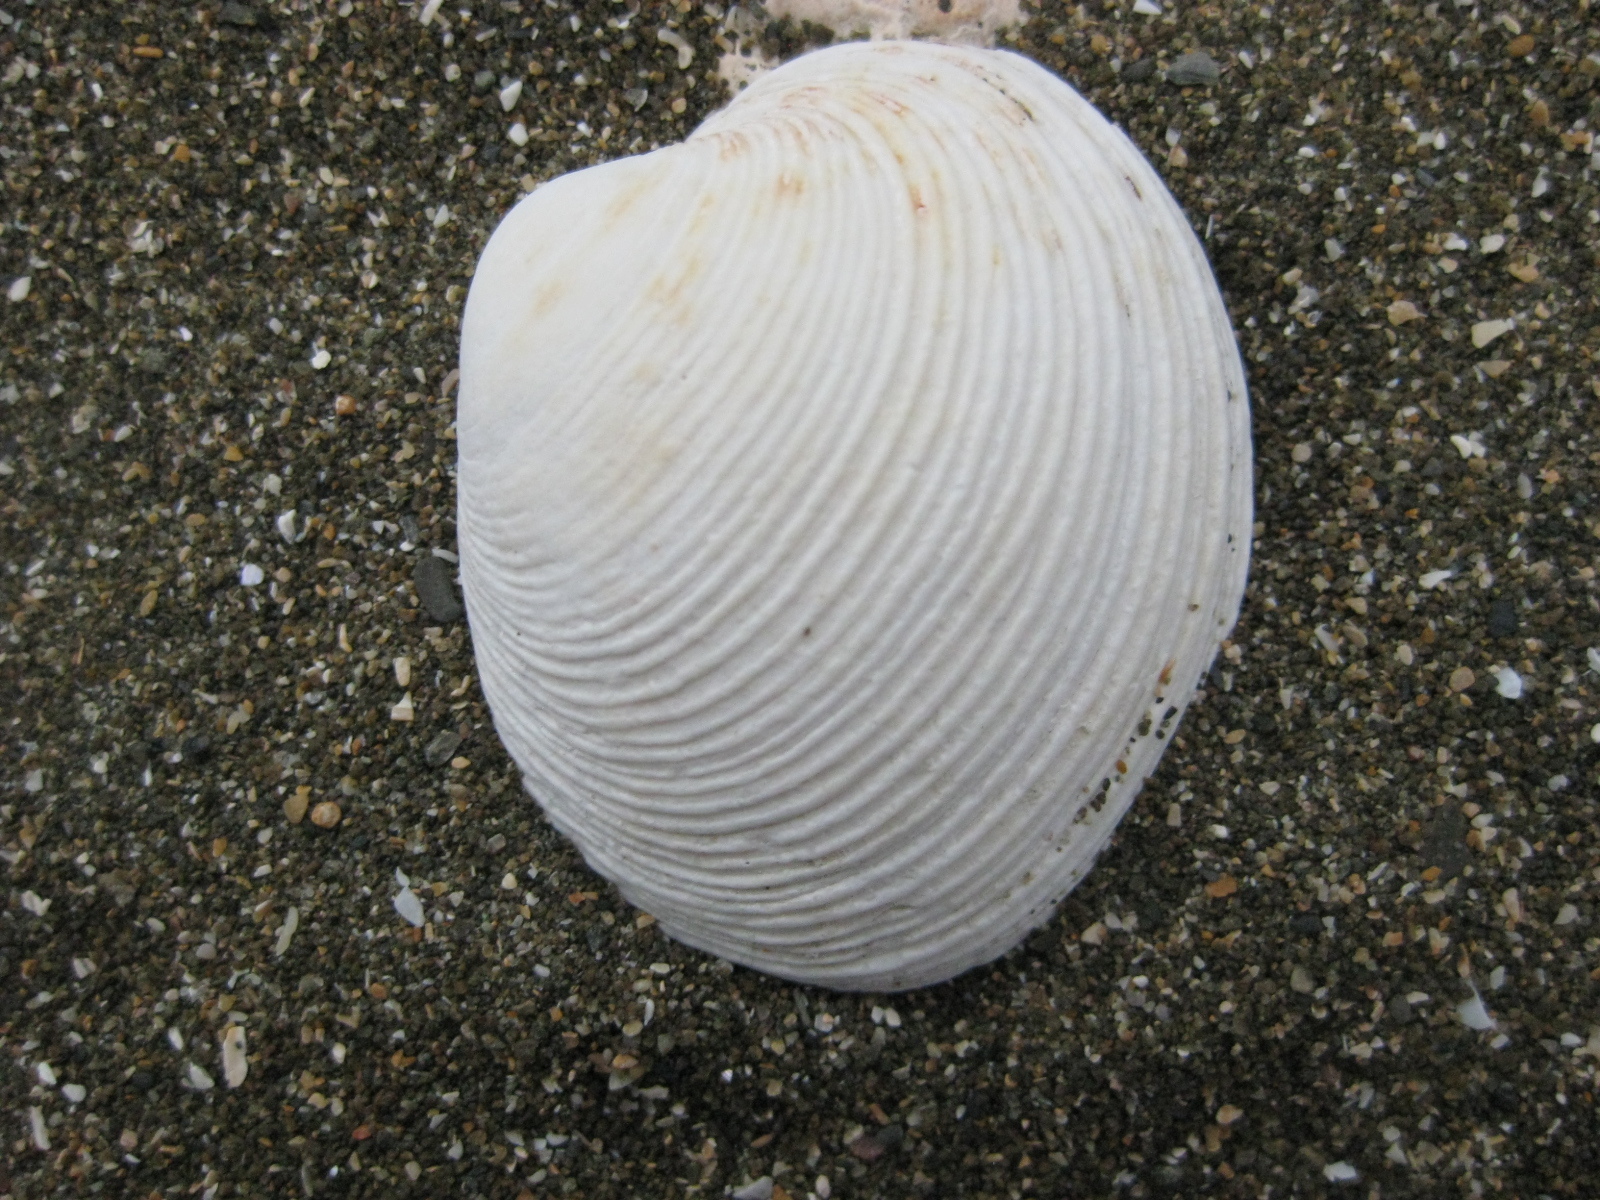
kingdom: Animalia
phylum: Mollusca
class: Bivalvia
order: Venerida
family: Veneridae
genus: Dosina
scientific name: Dosina mactracea
